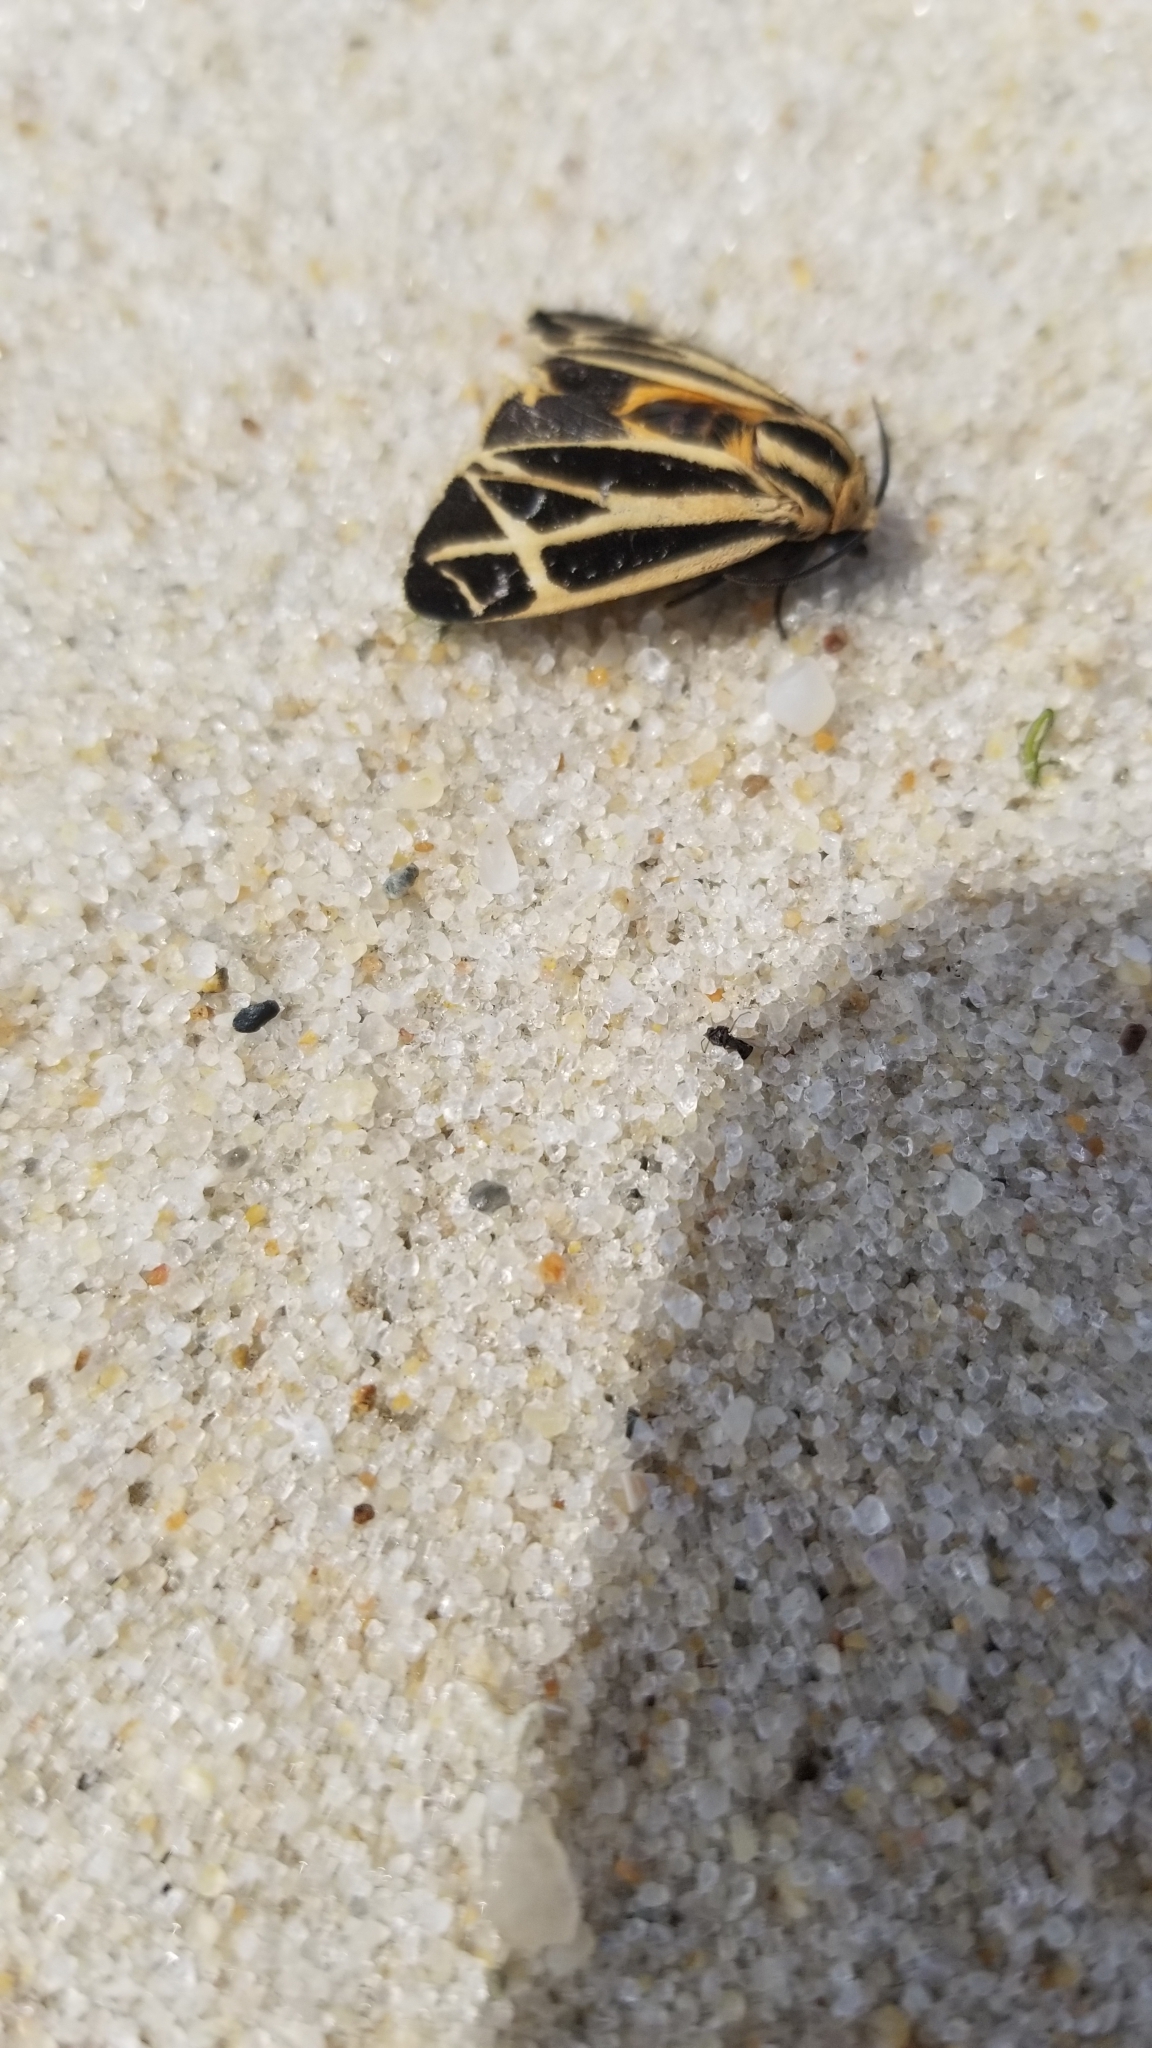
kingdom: Animalia
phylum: Arthropoda
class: Insecta
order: Lepidoptera
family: Erebidae
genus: Apantesis
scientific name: Apantesis nais
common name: Nais tiger moth
